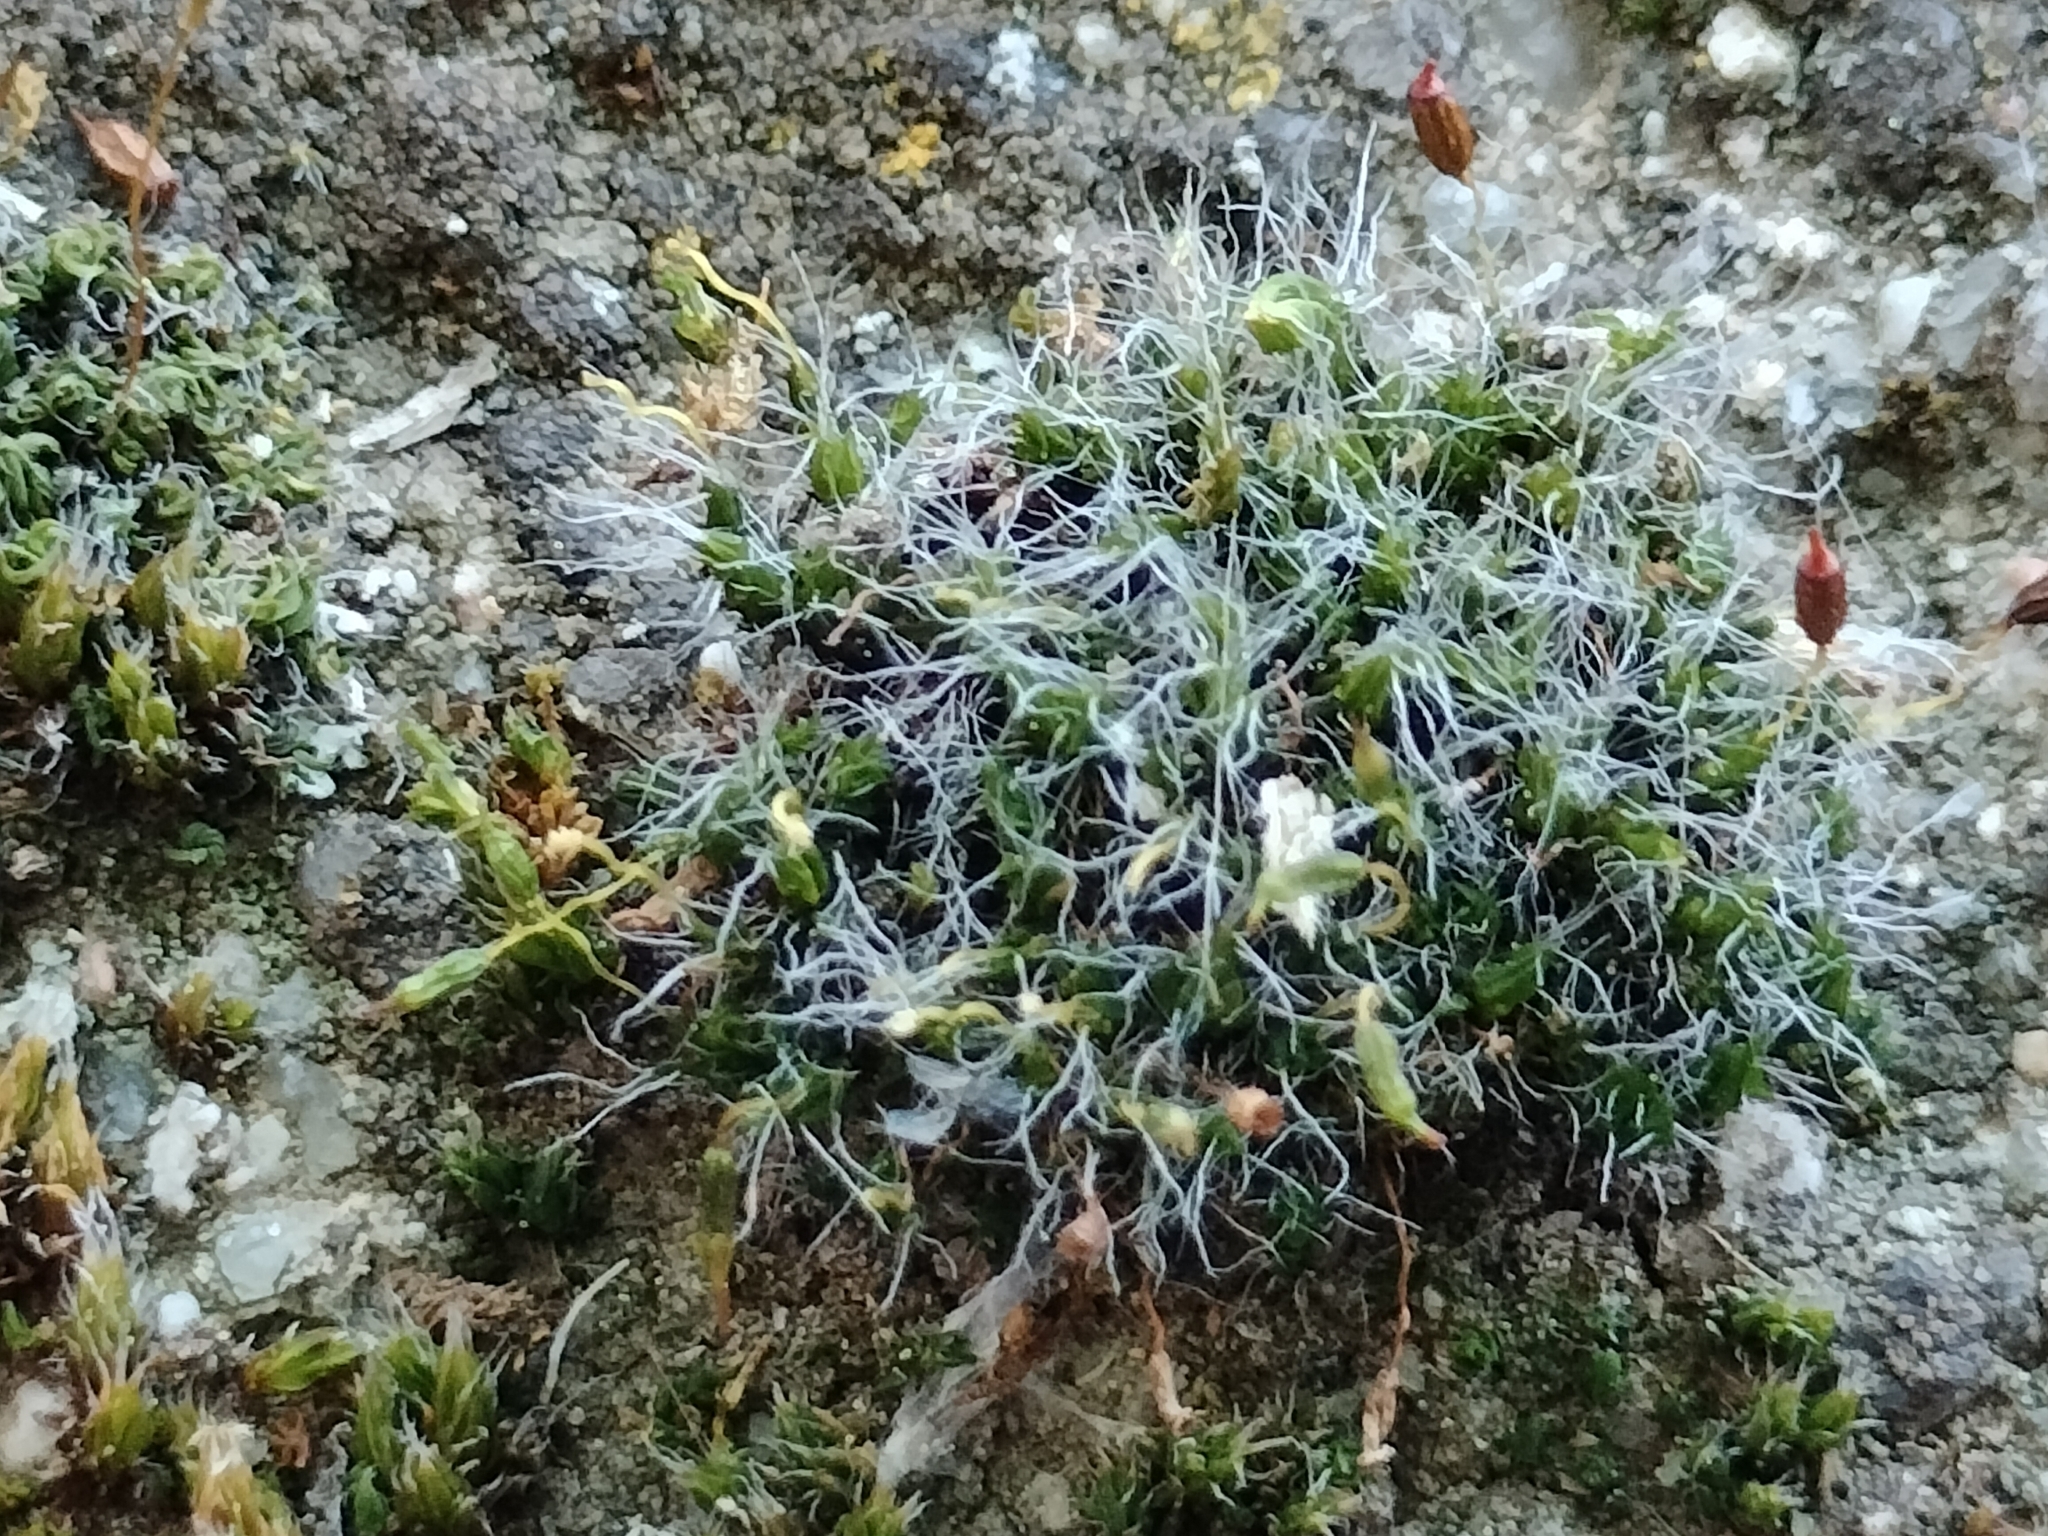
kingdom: Plantae
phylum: Bryophyta
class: Bryopsida
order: Grimmiales
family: Grimmiaceae
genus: Grimmia
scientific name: Grimmia pulvinata
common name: Grey-cushioned grimmia
